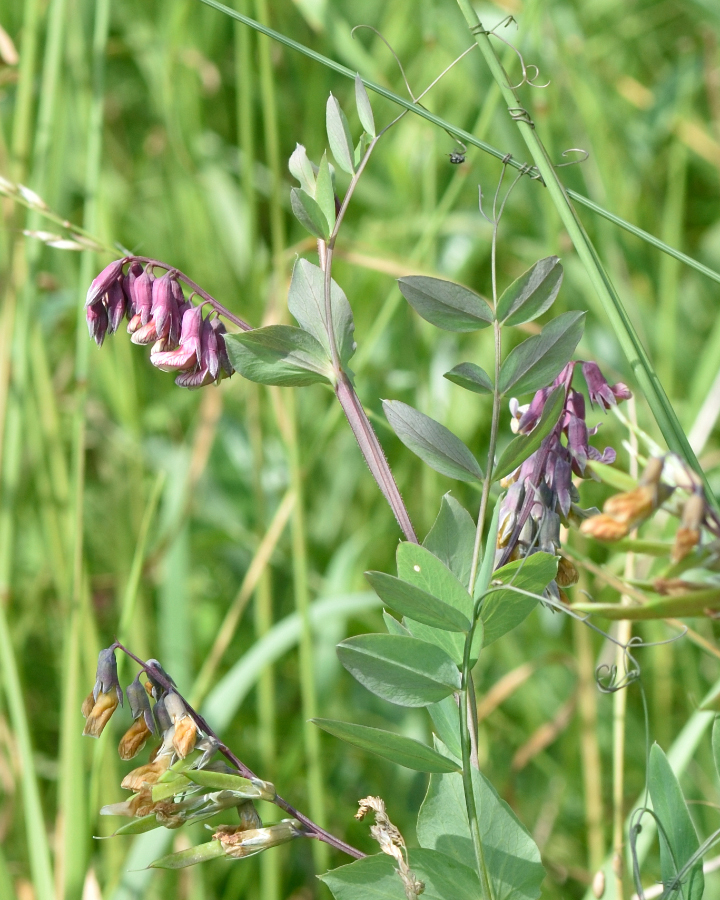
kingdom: Plantae
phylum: Tracheophyta
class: Magnoliopsida
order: Fabales
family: Fabaceae
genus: Lathyrus
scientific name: Lathyrus pisiformis
